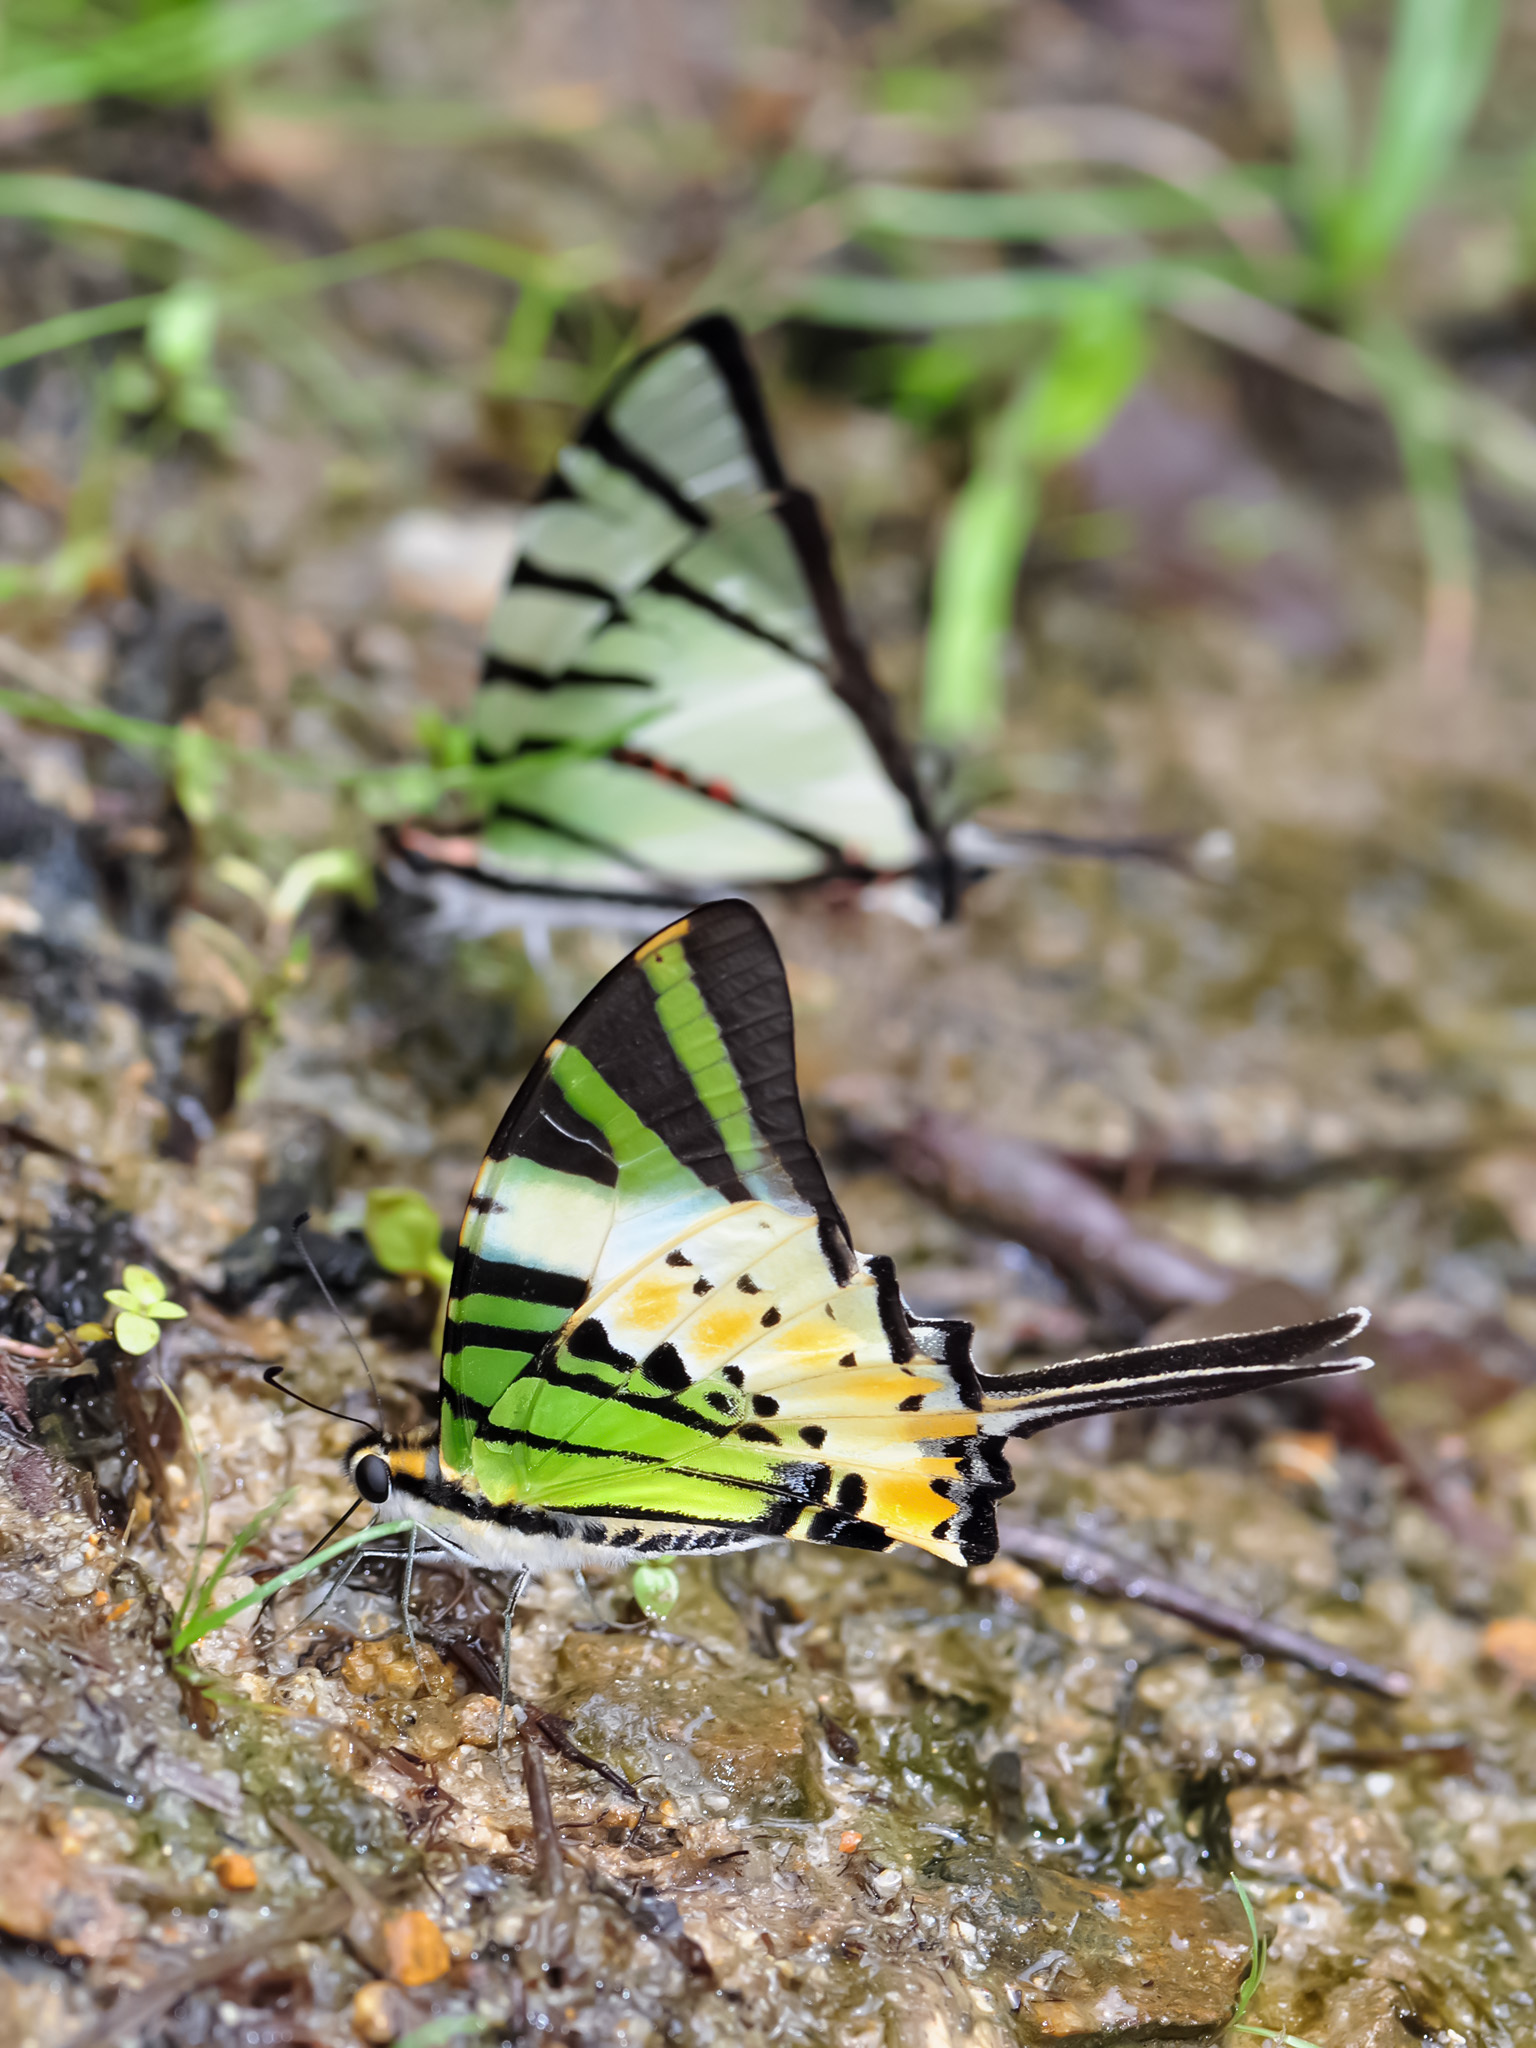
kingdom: Animalia
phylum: Arthropoda
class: Insecta
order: Lepidoptera
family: Papilionidae
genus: Graphium
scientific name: Graphium antiphates
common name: Fivebar swordtail
